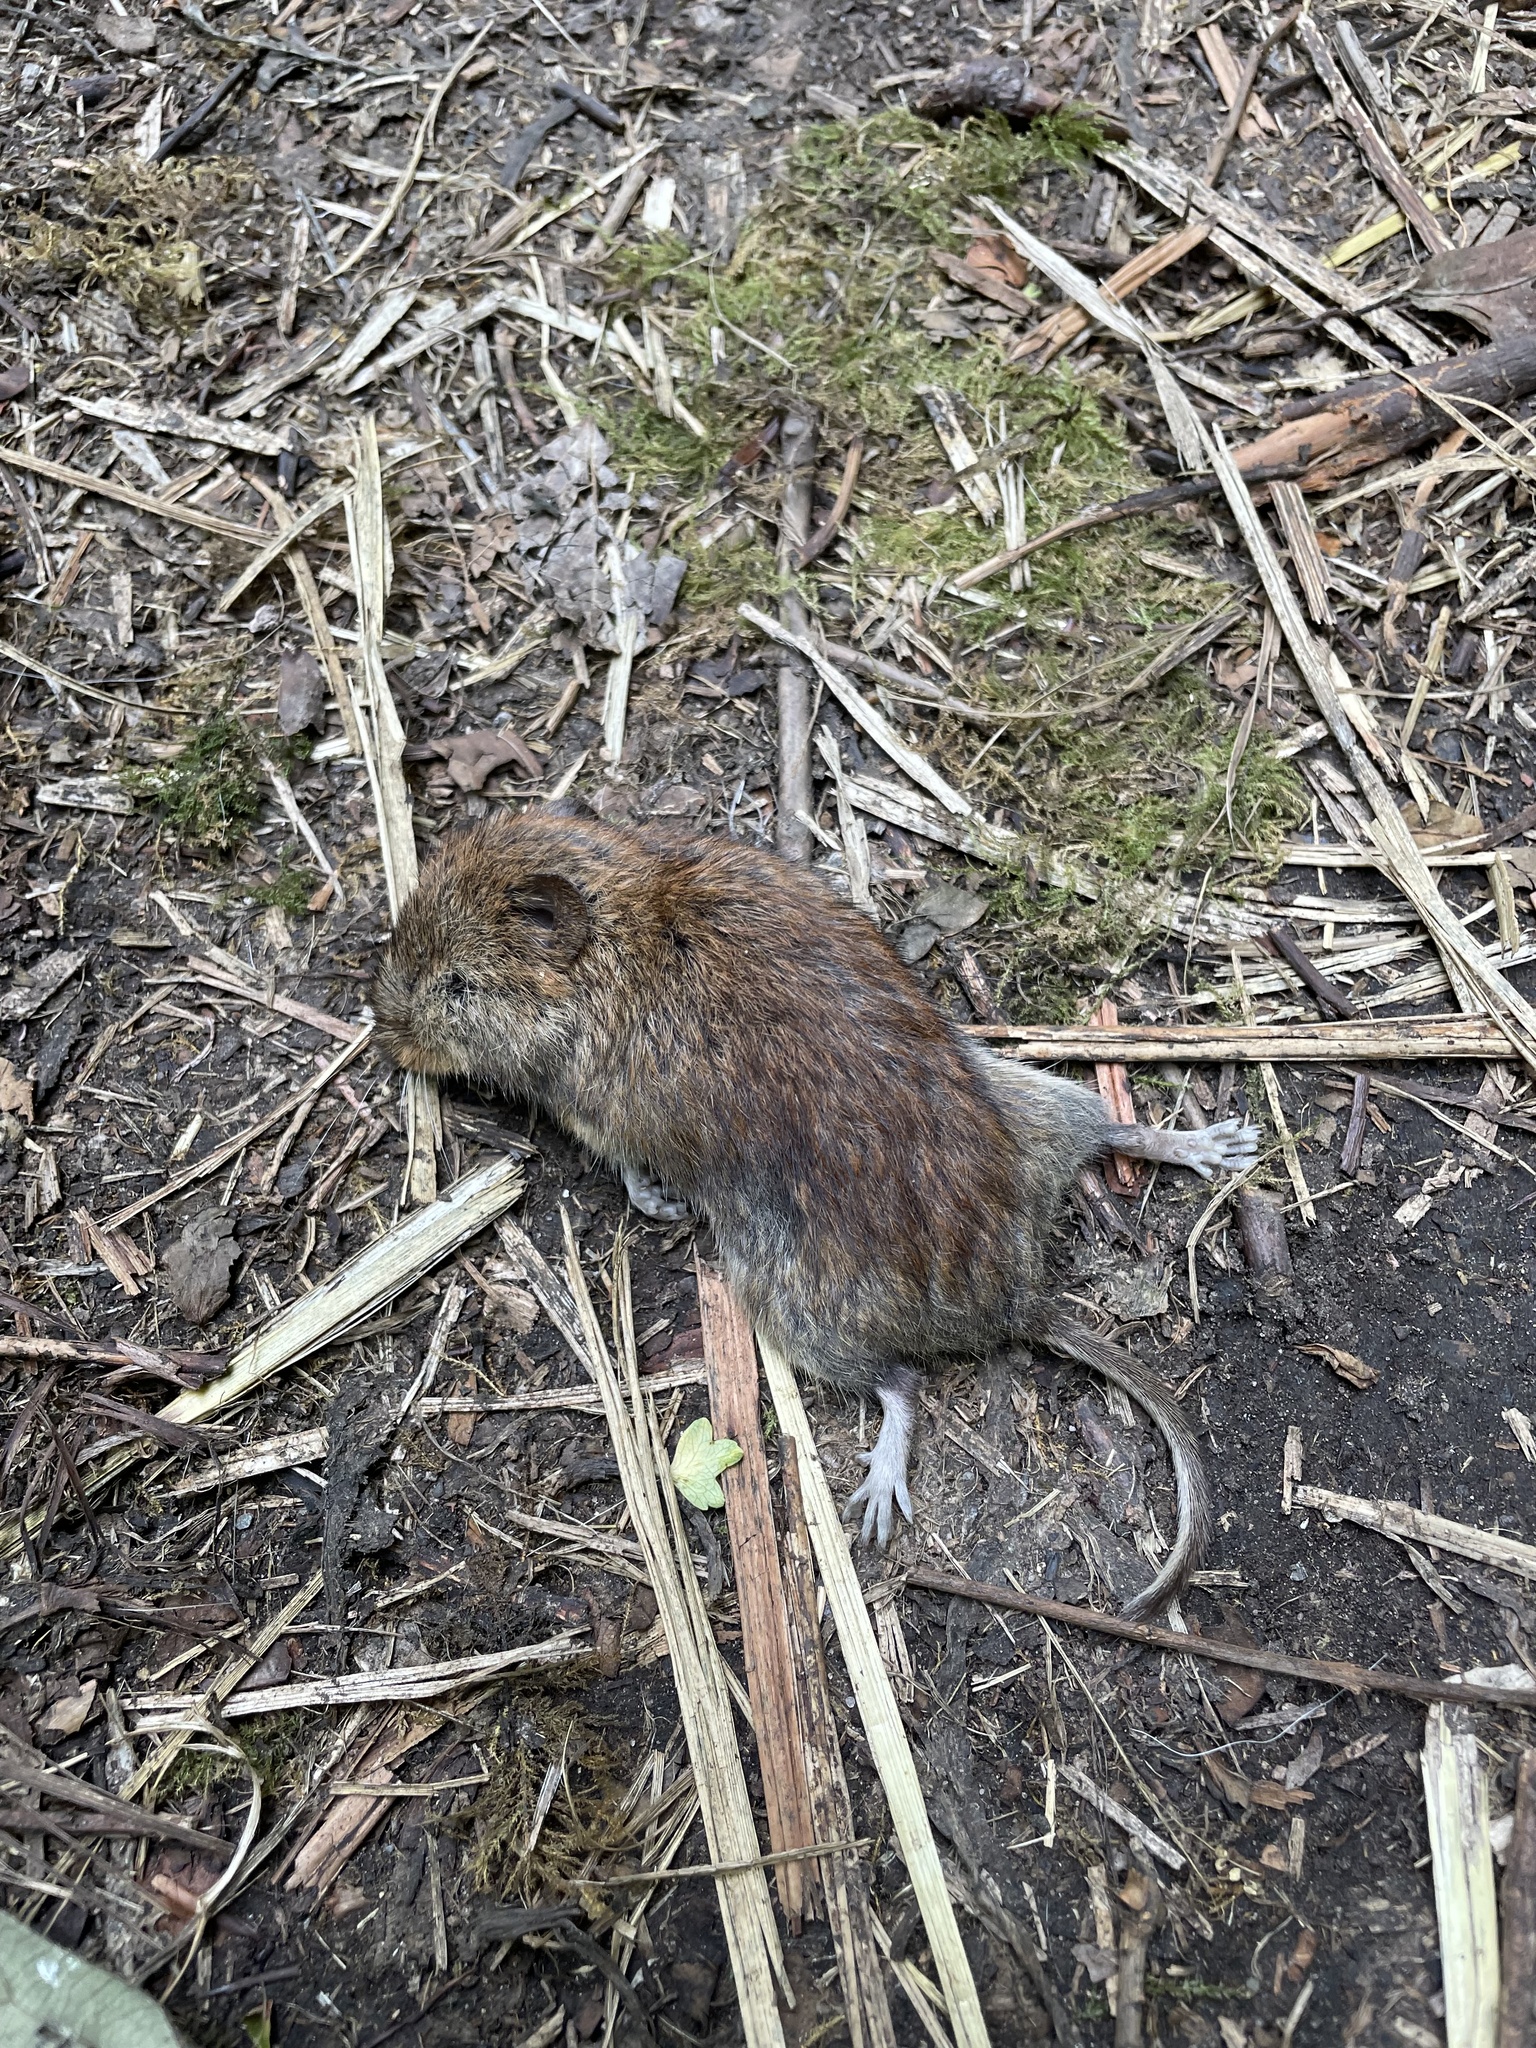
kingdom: Animalia
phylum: Chordata
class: Mammalia
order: Rodentia
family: Cricetidae
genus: Myodes
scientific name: Myodes glareolus
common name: Bank vole
